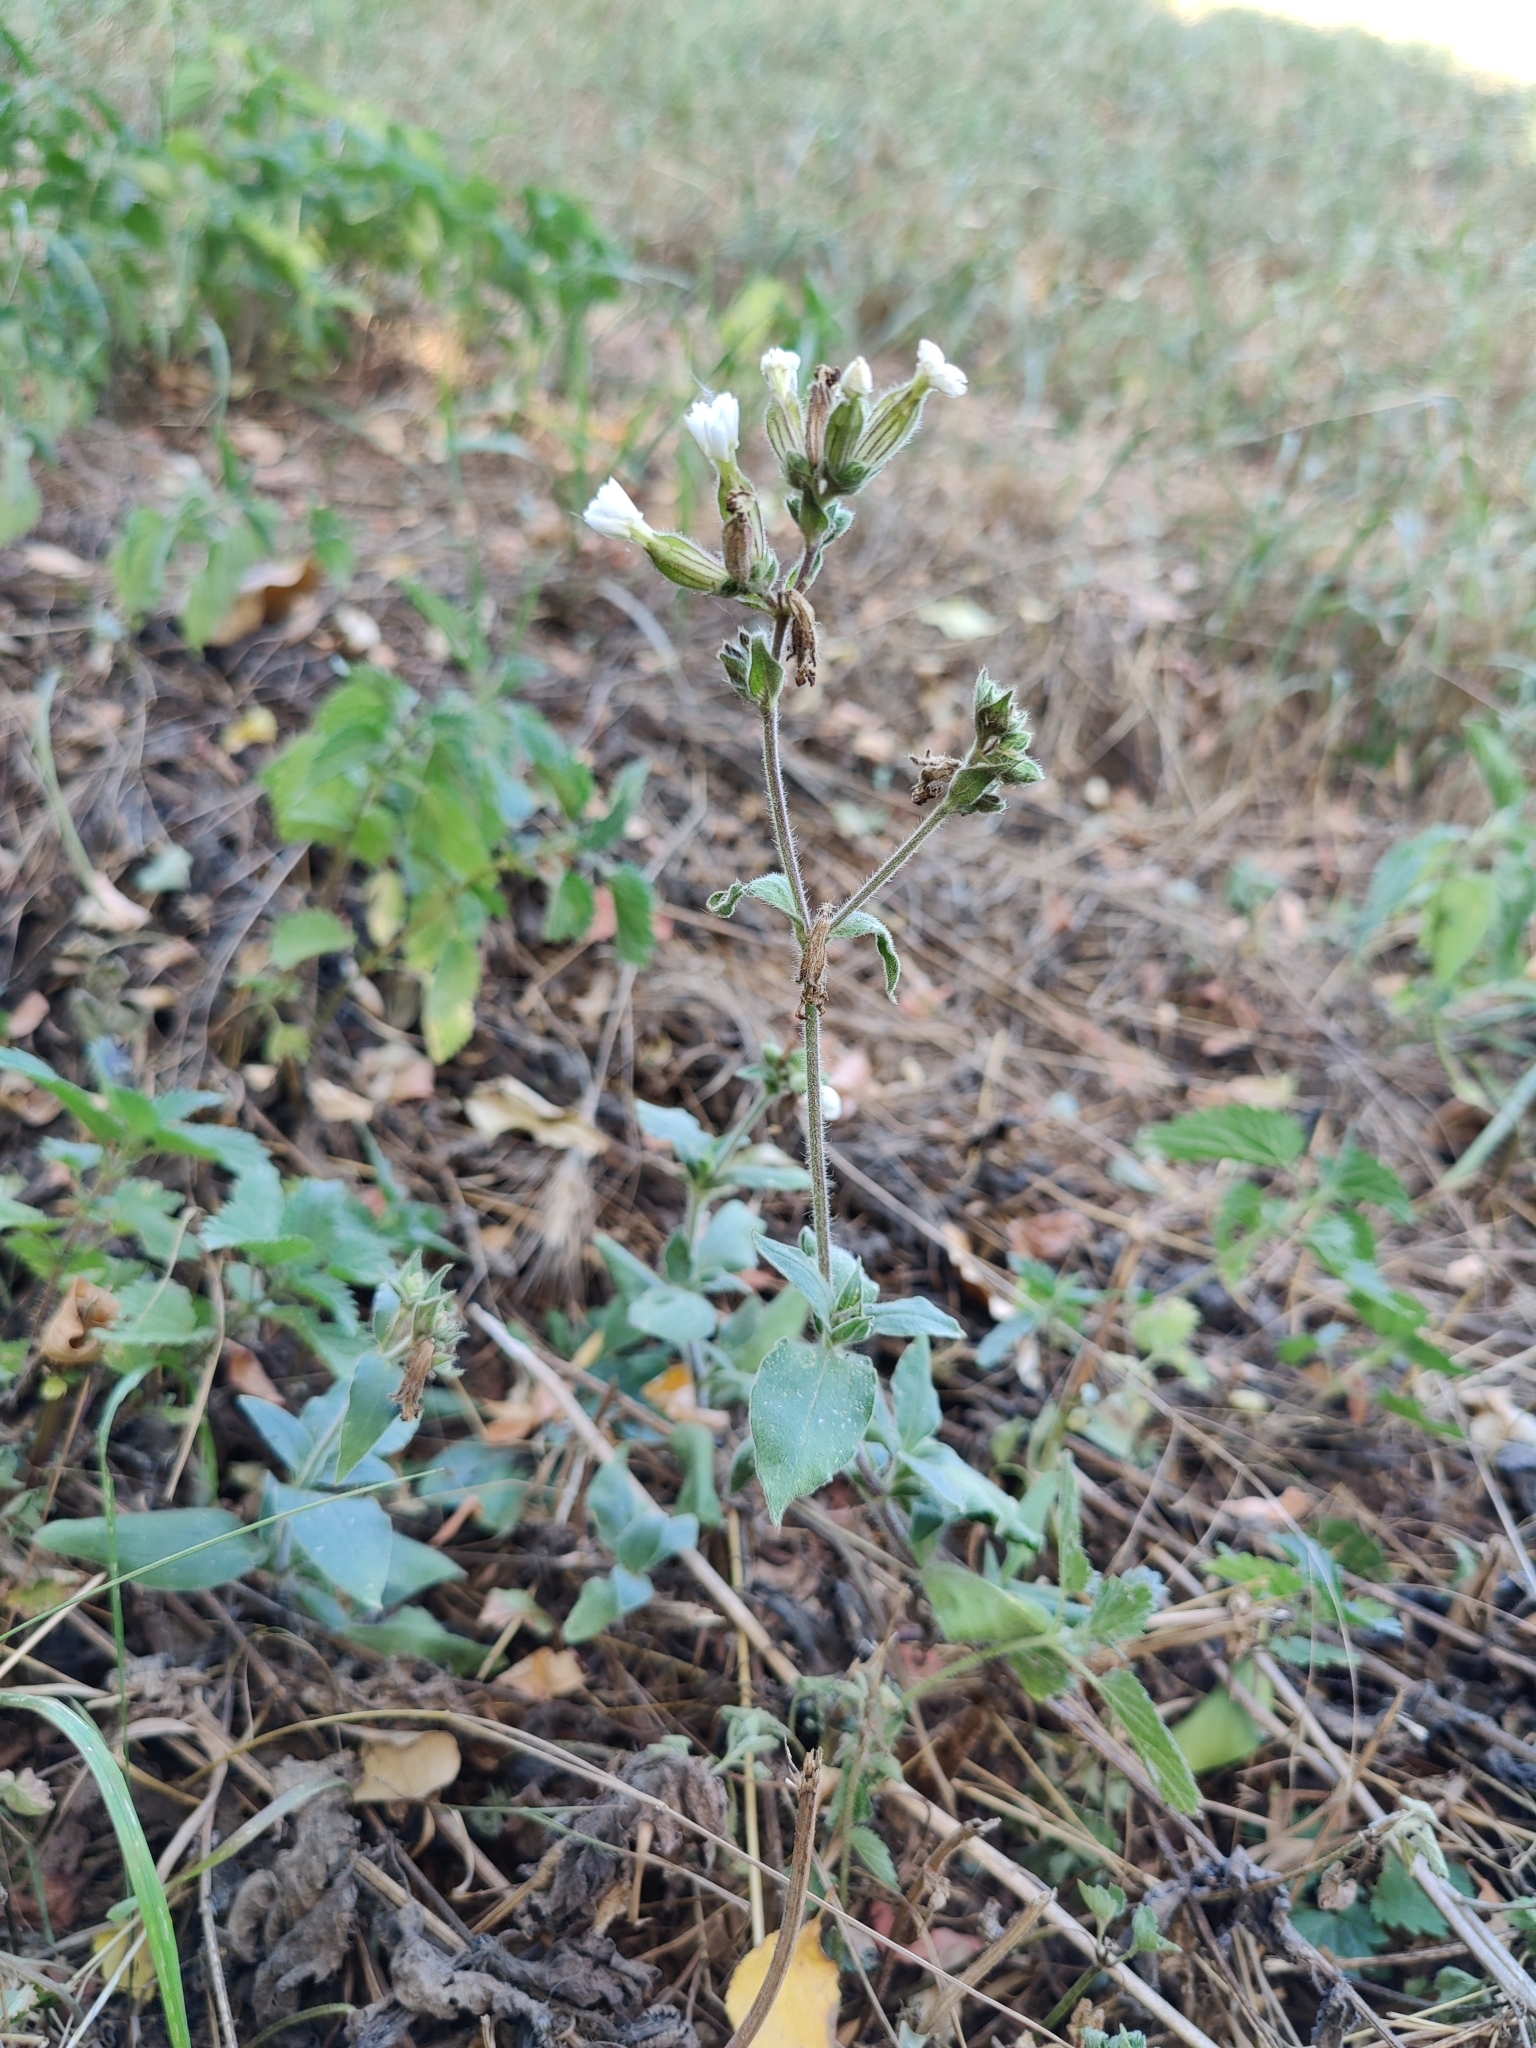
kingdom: Plantae
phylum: Tracheophyta
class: Magnoliopsida
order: Caryophyllales
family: Caryophyllaceae
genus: Silene
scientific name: Silene latifolia
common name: White campion
